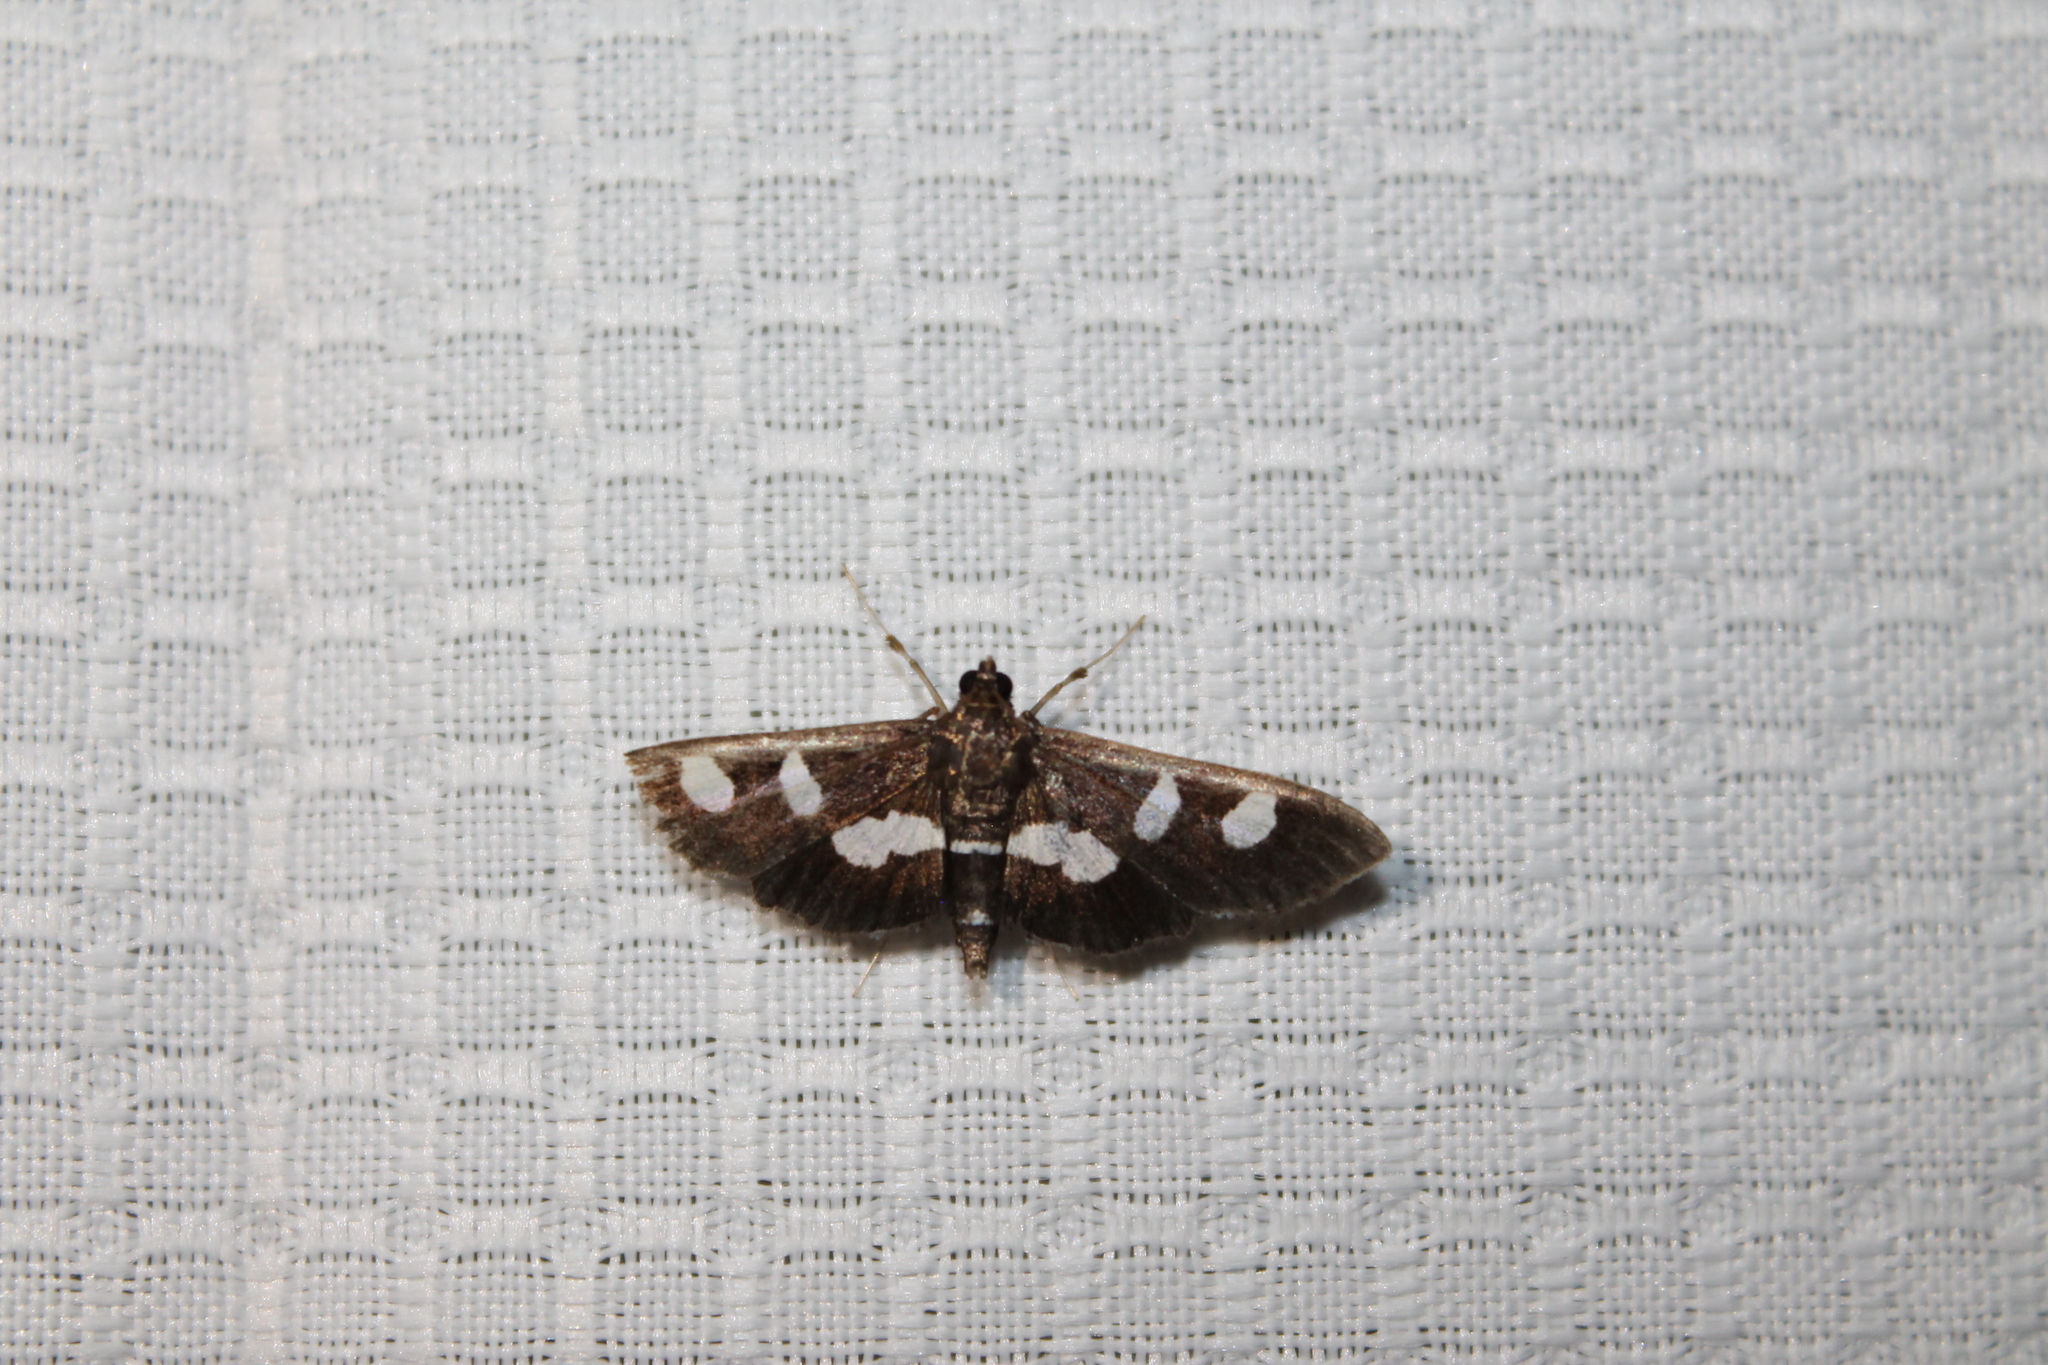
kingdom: Animalia
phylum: Arthropoda
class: Insecta
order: Lepidoptera
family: Crambidae
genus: Desmia
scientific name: Desmia
